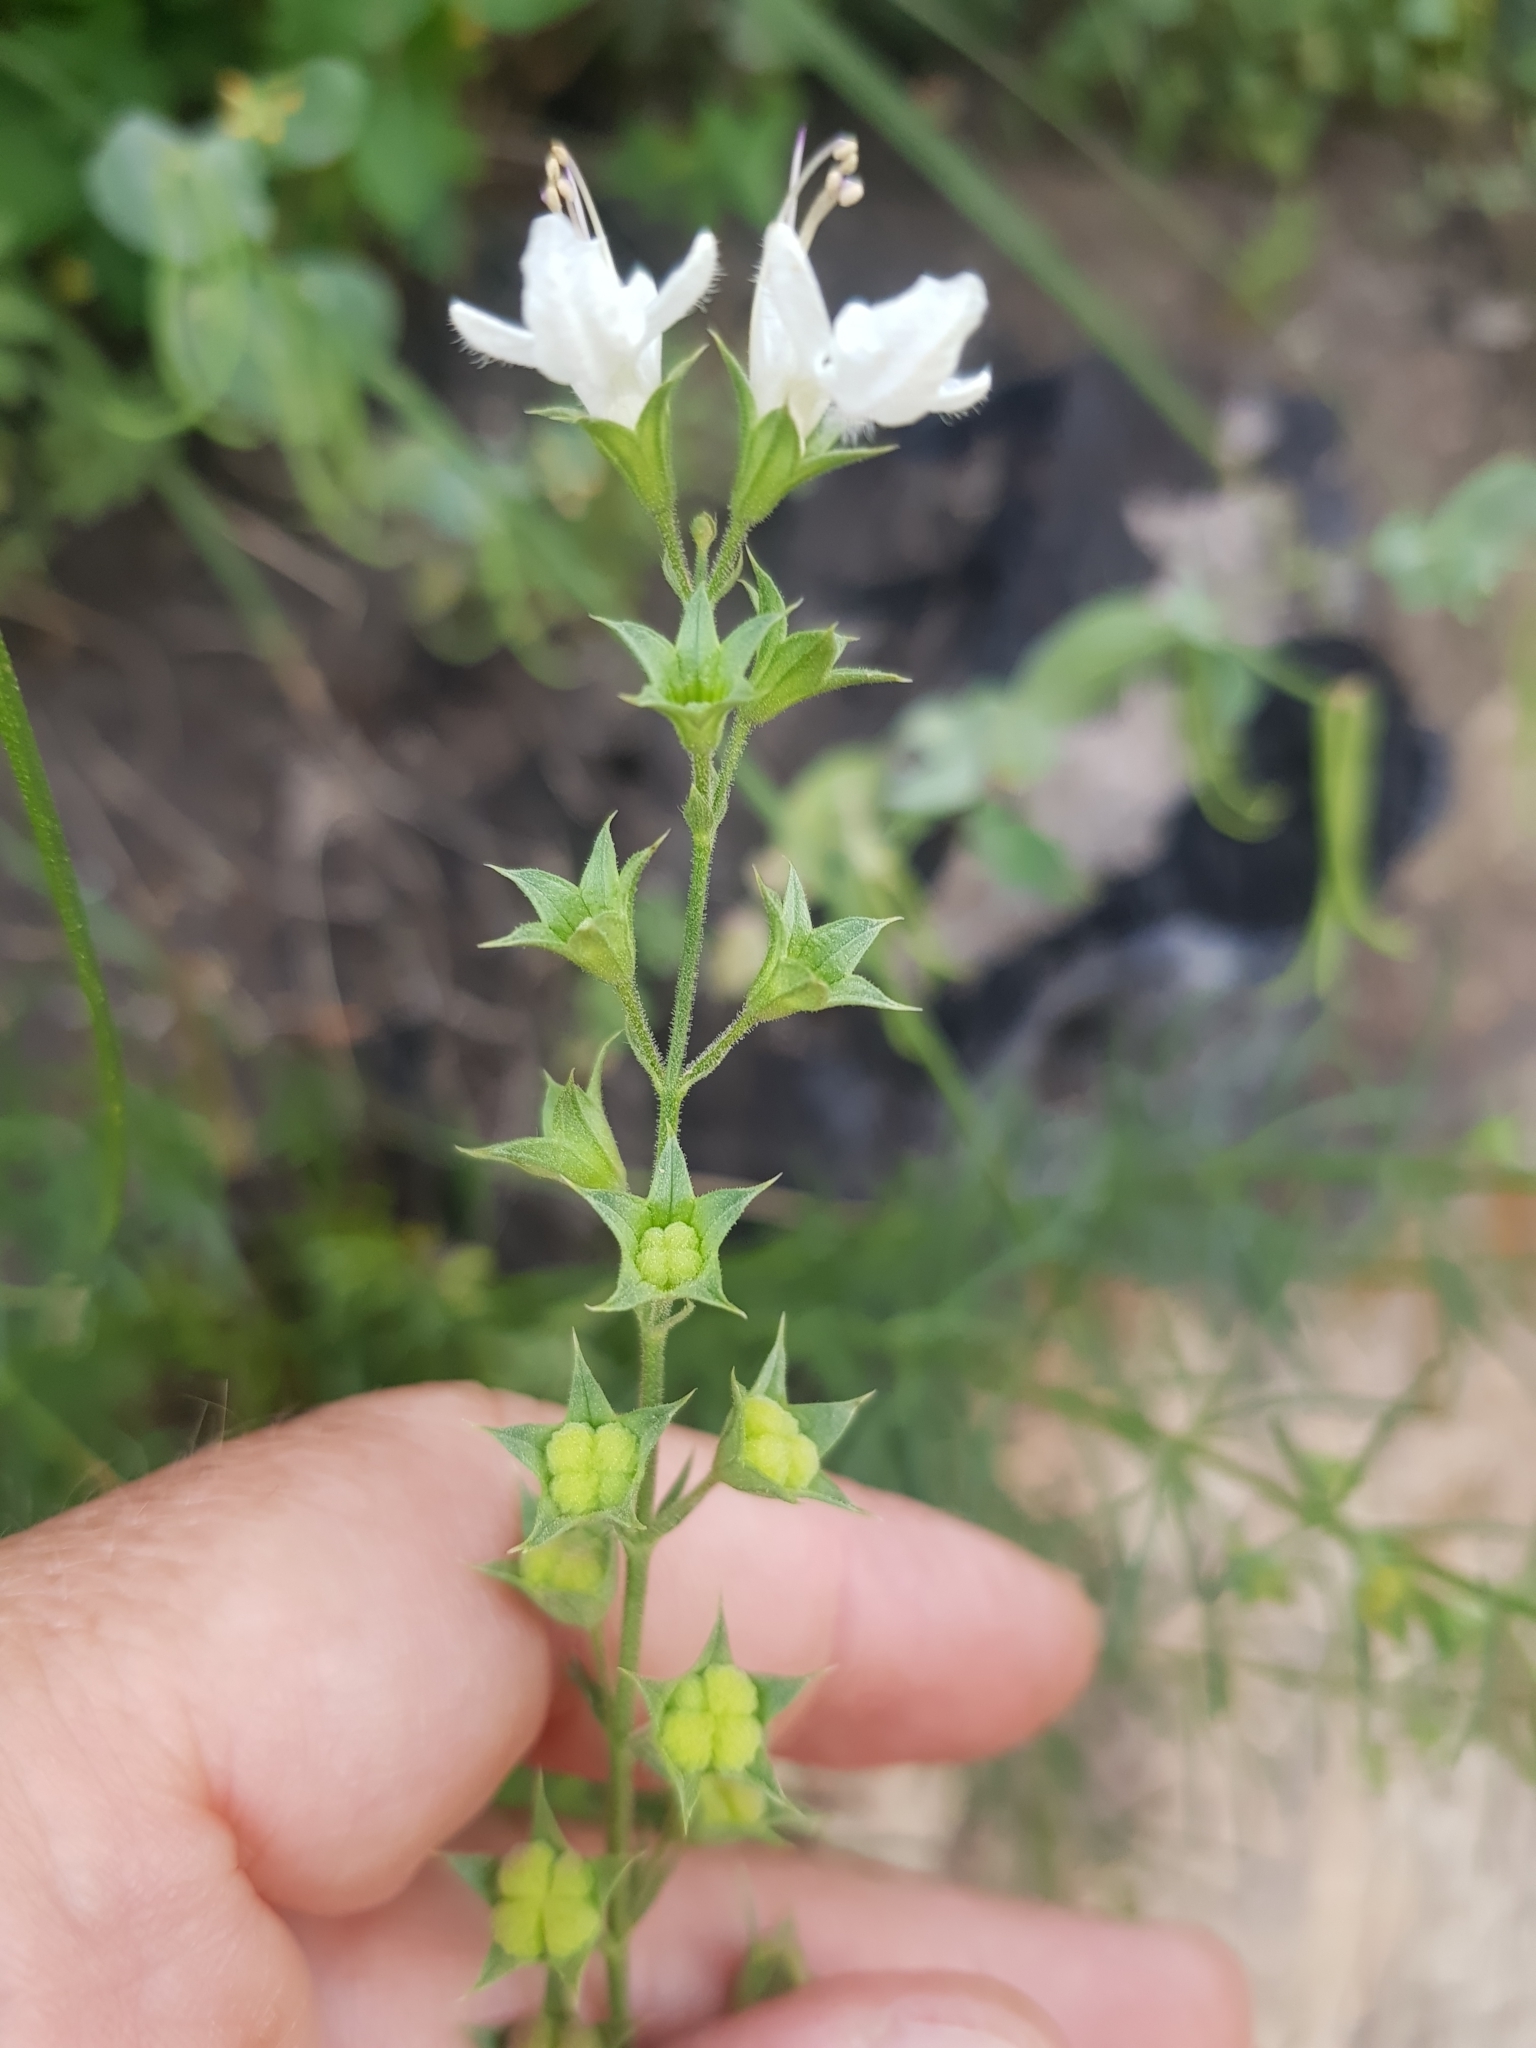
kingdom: Plantae
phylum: Tracheophyta
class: Magnoliopsida
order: Lamiales
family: Lamiaceae
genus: Teucrium
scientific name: Teucrium pseudochamaepitys
